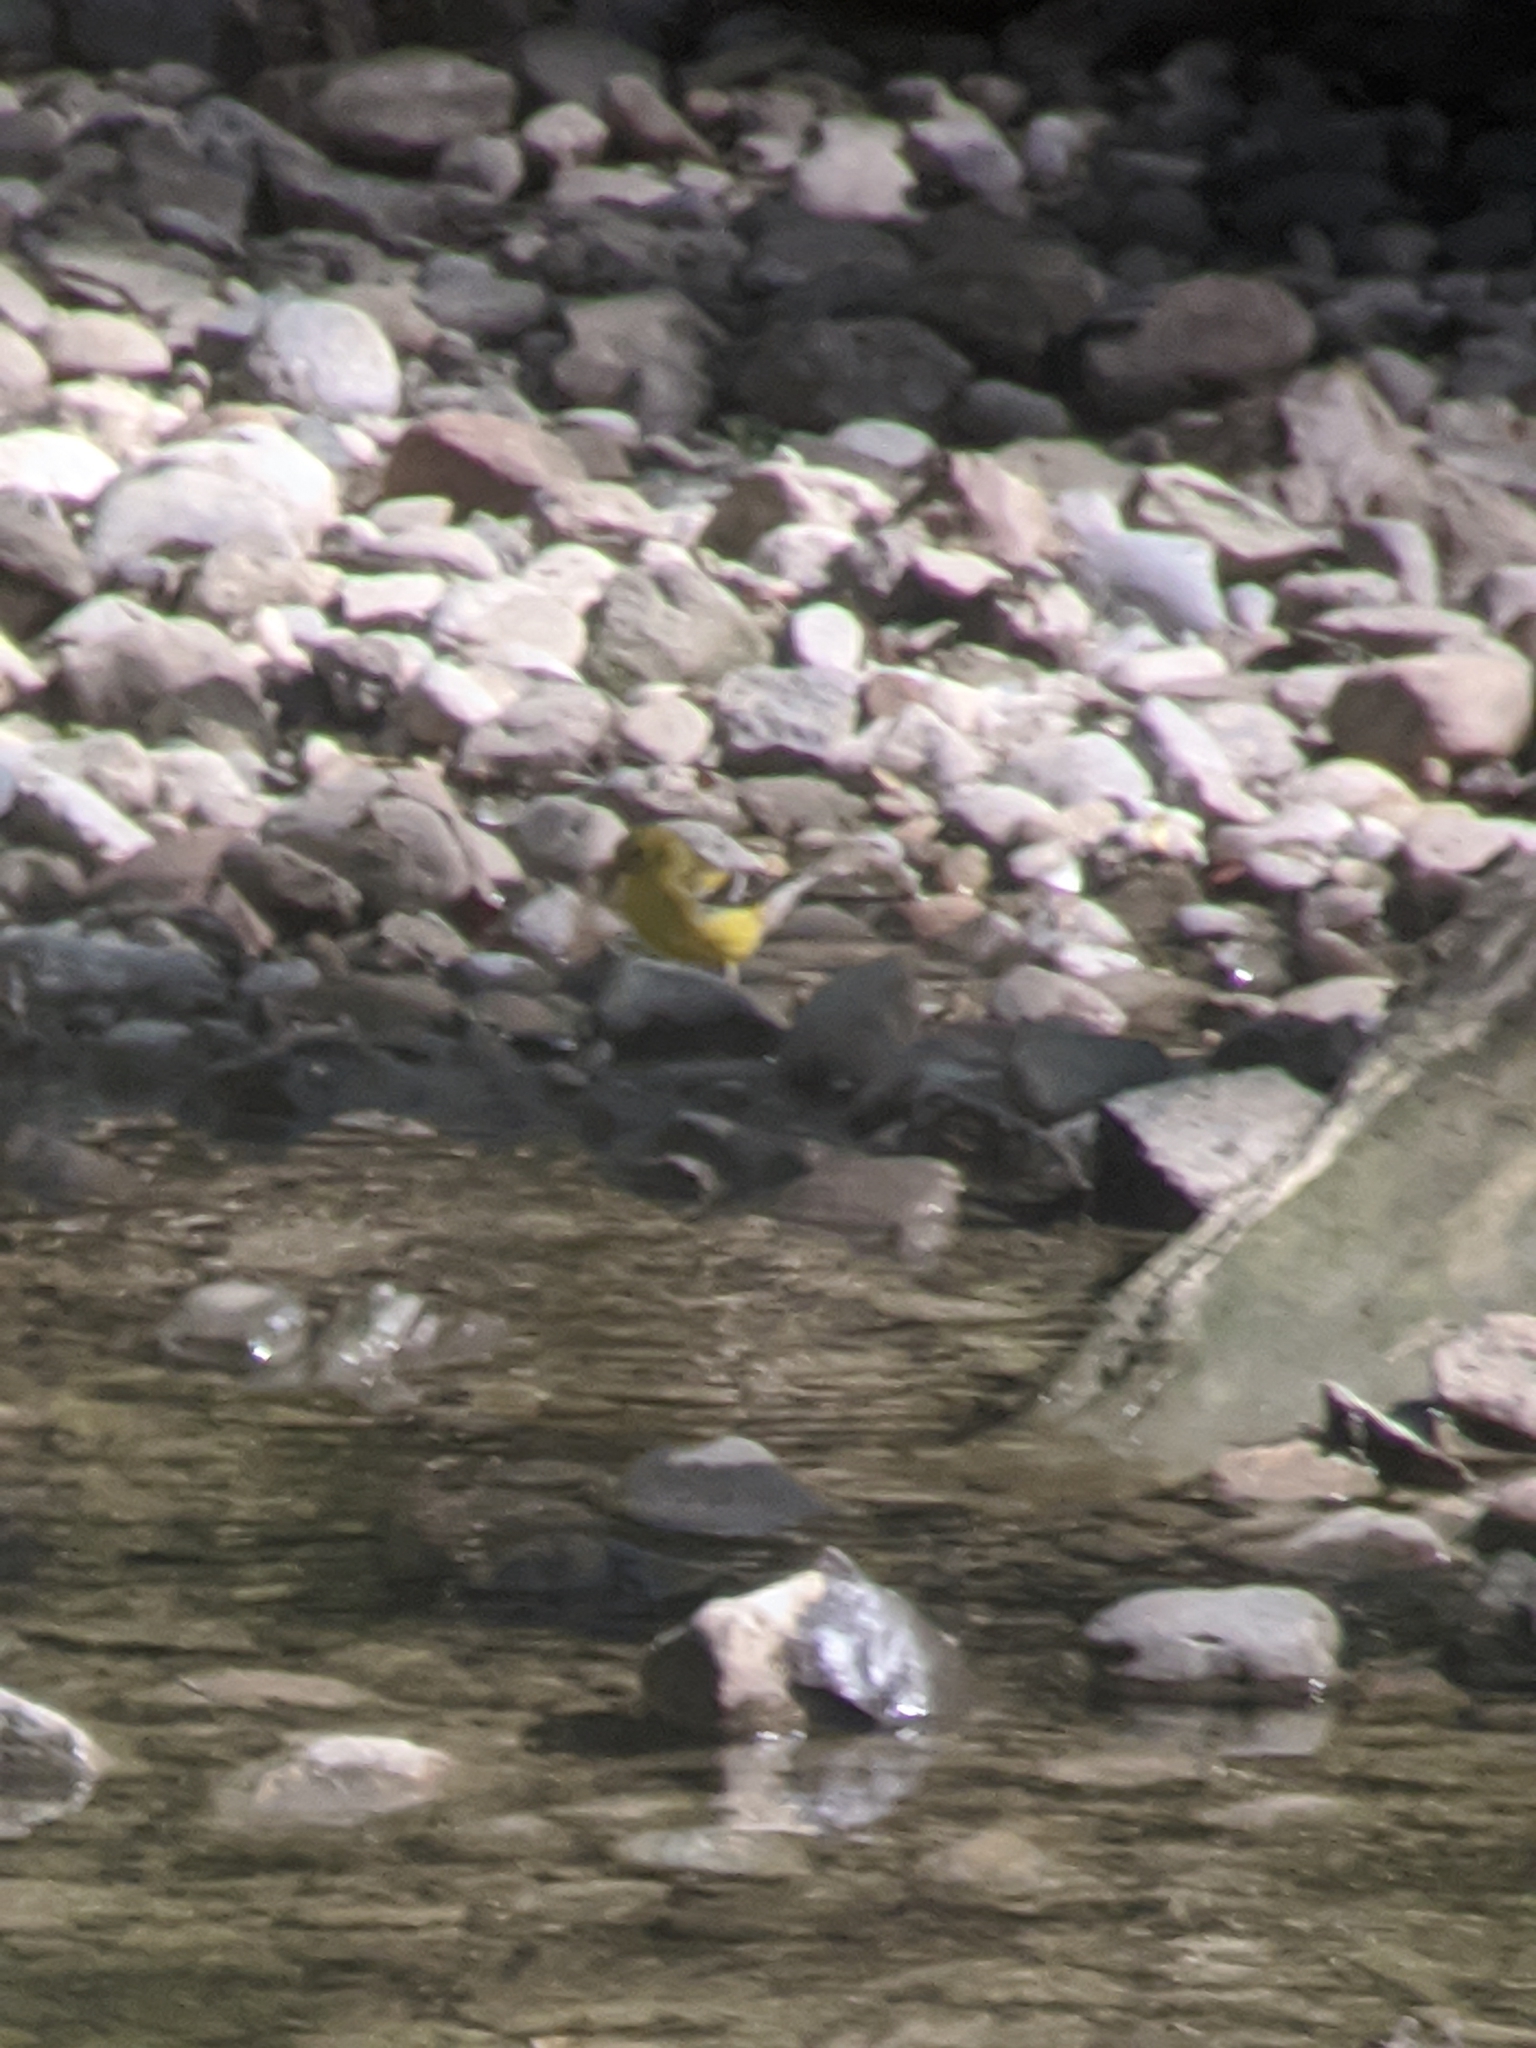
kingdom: Animalia
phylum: Chordata
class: Aves
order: Passeriformes
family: Fringillidae
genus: Spinus
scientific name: Spinus tristis
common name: American goldfinch
